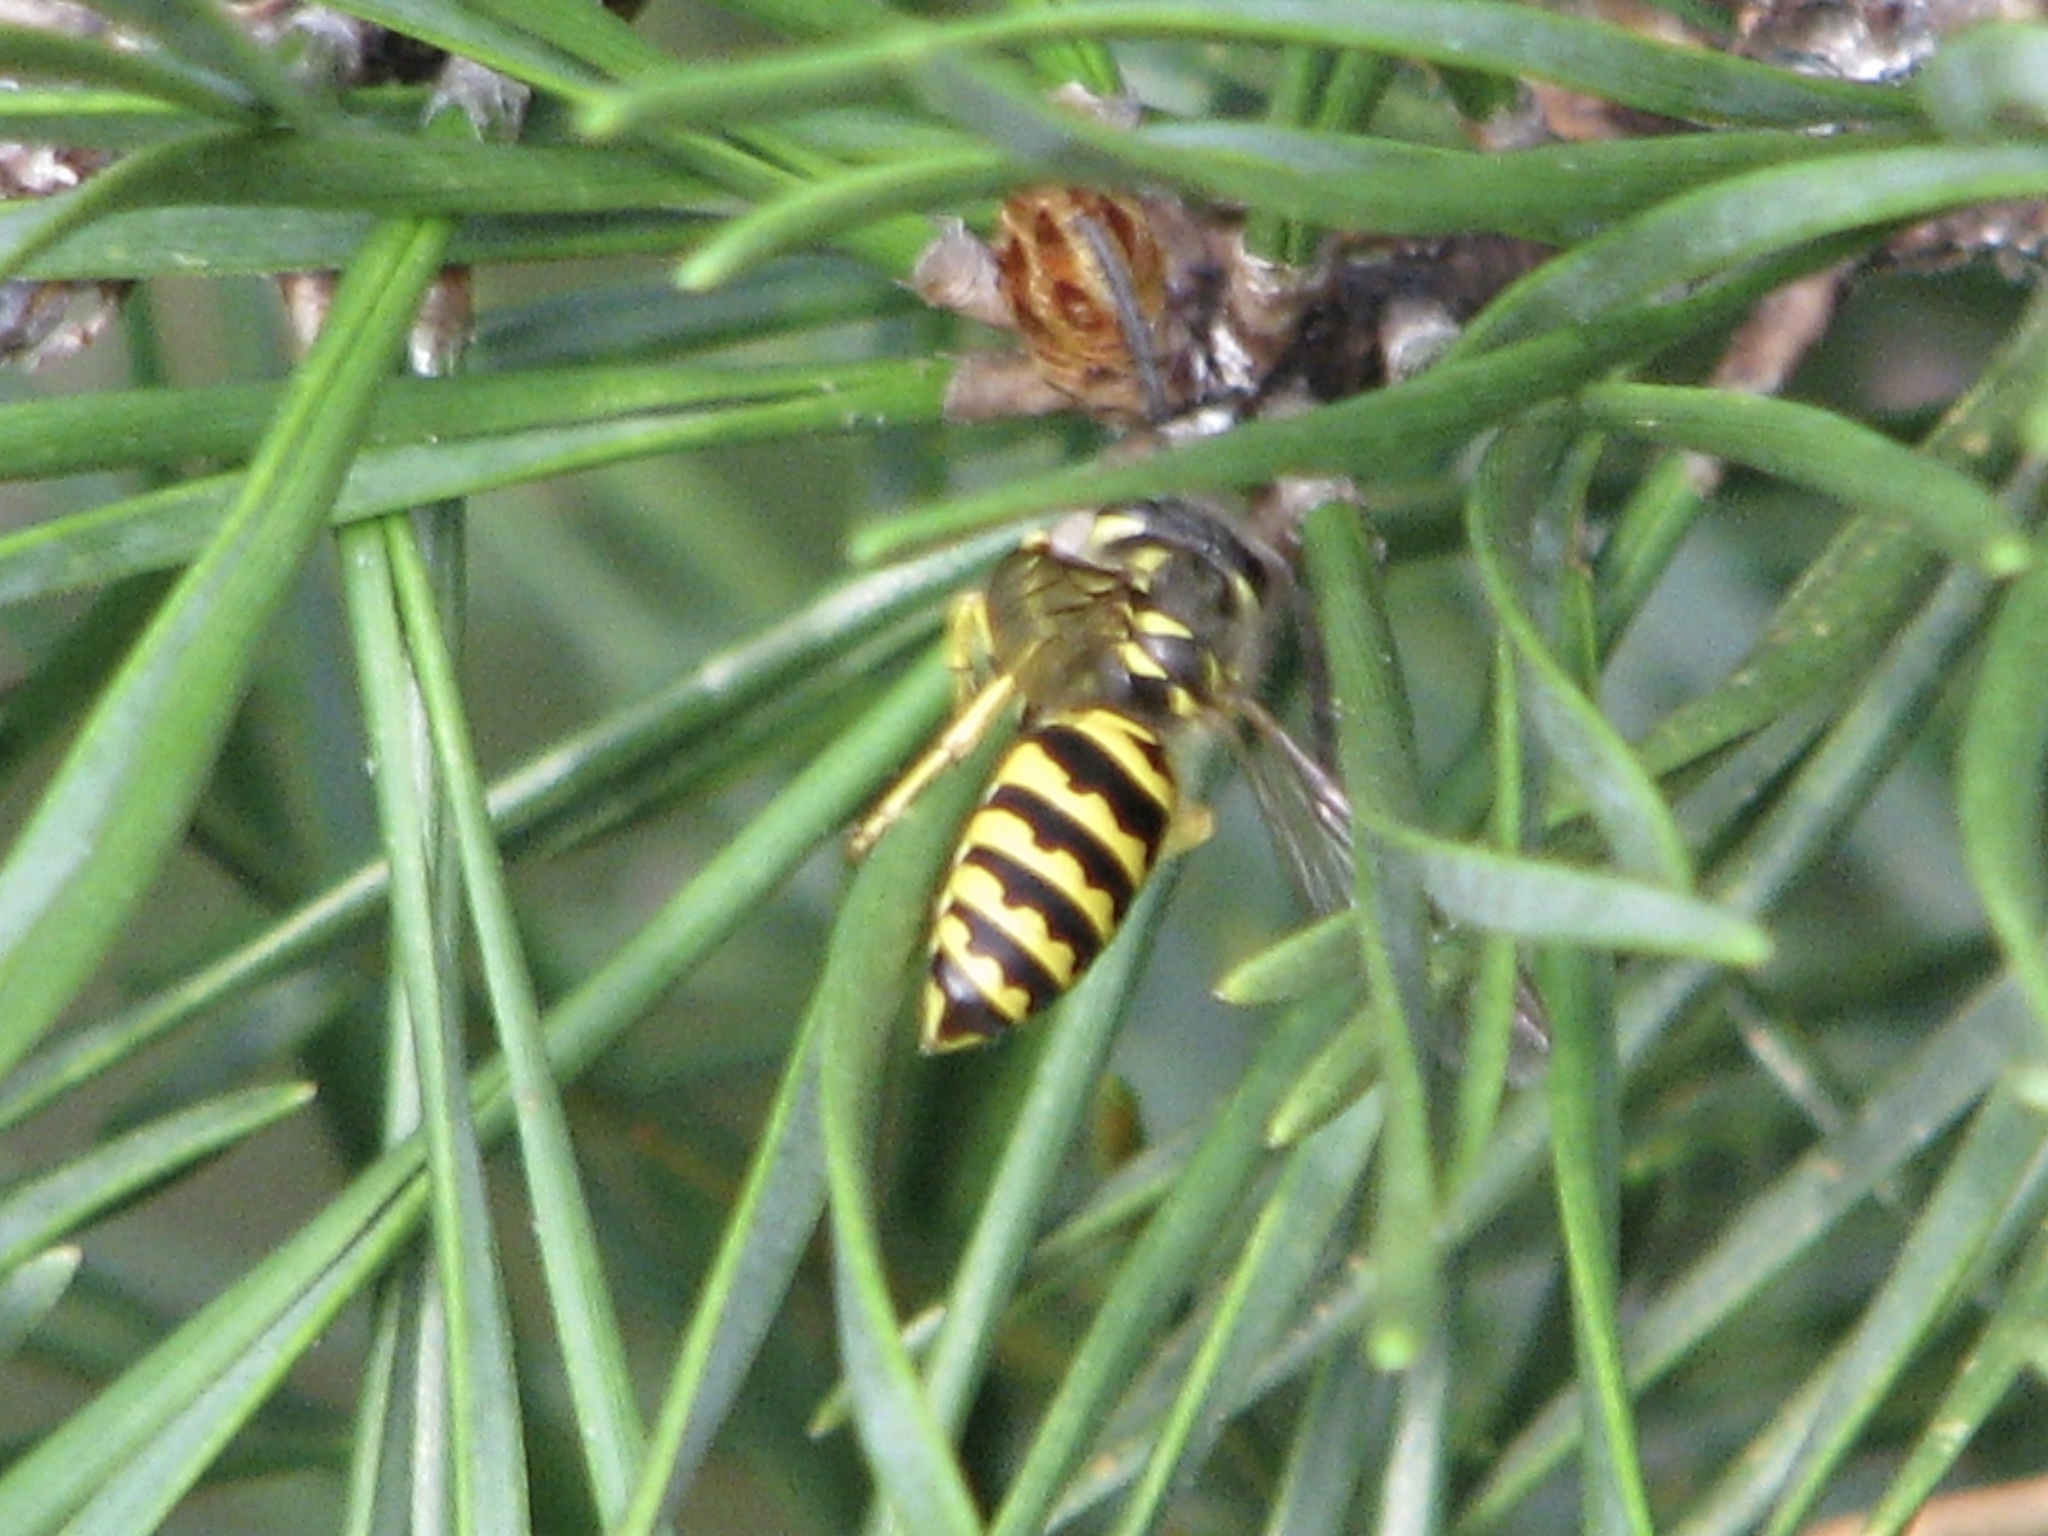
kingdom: Animalia
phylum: Arthropoda
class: Insecta
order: Hymenoptera
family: Vespidae
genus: Vespula
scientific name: Vespula maculifrons
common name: Eastern yellowjacket
